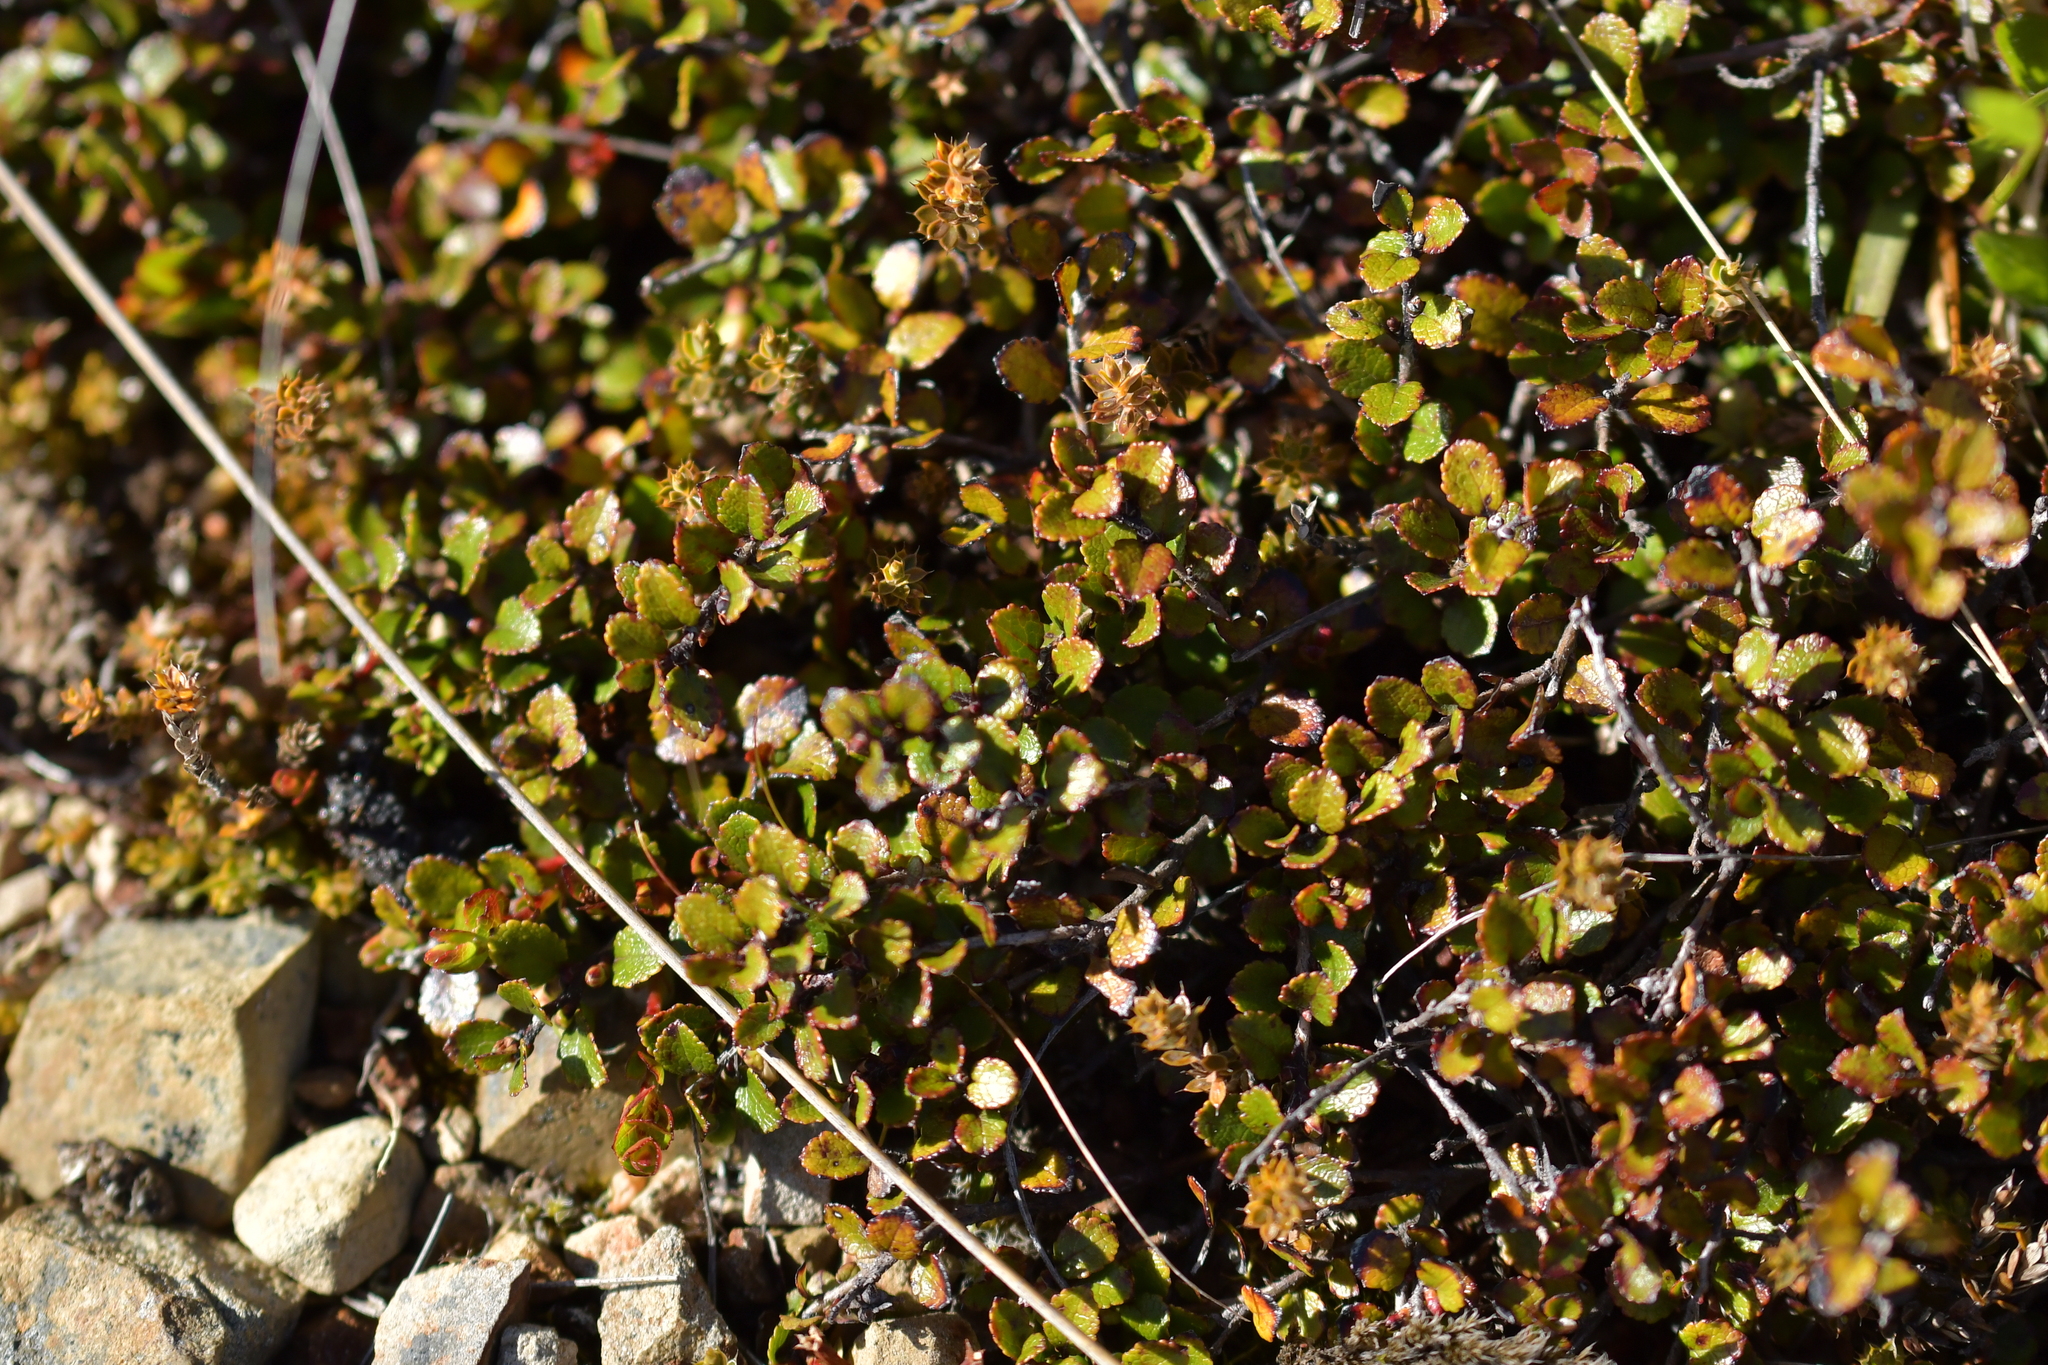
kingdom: Plantae
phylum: Tracheophyta
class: Magnoliopsida
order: Ericales
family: Ericaceae
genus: Gaultheria
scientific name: Gaultheria depressa
